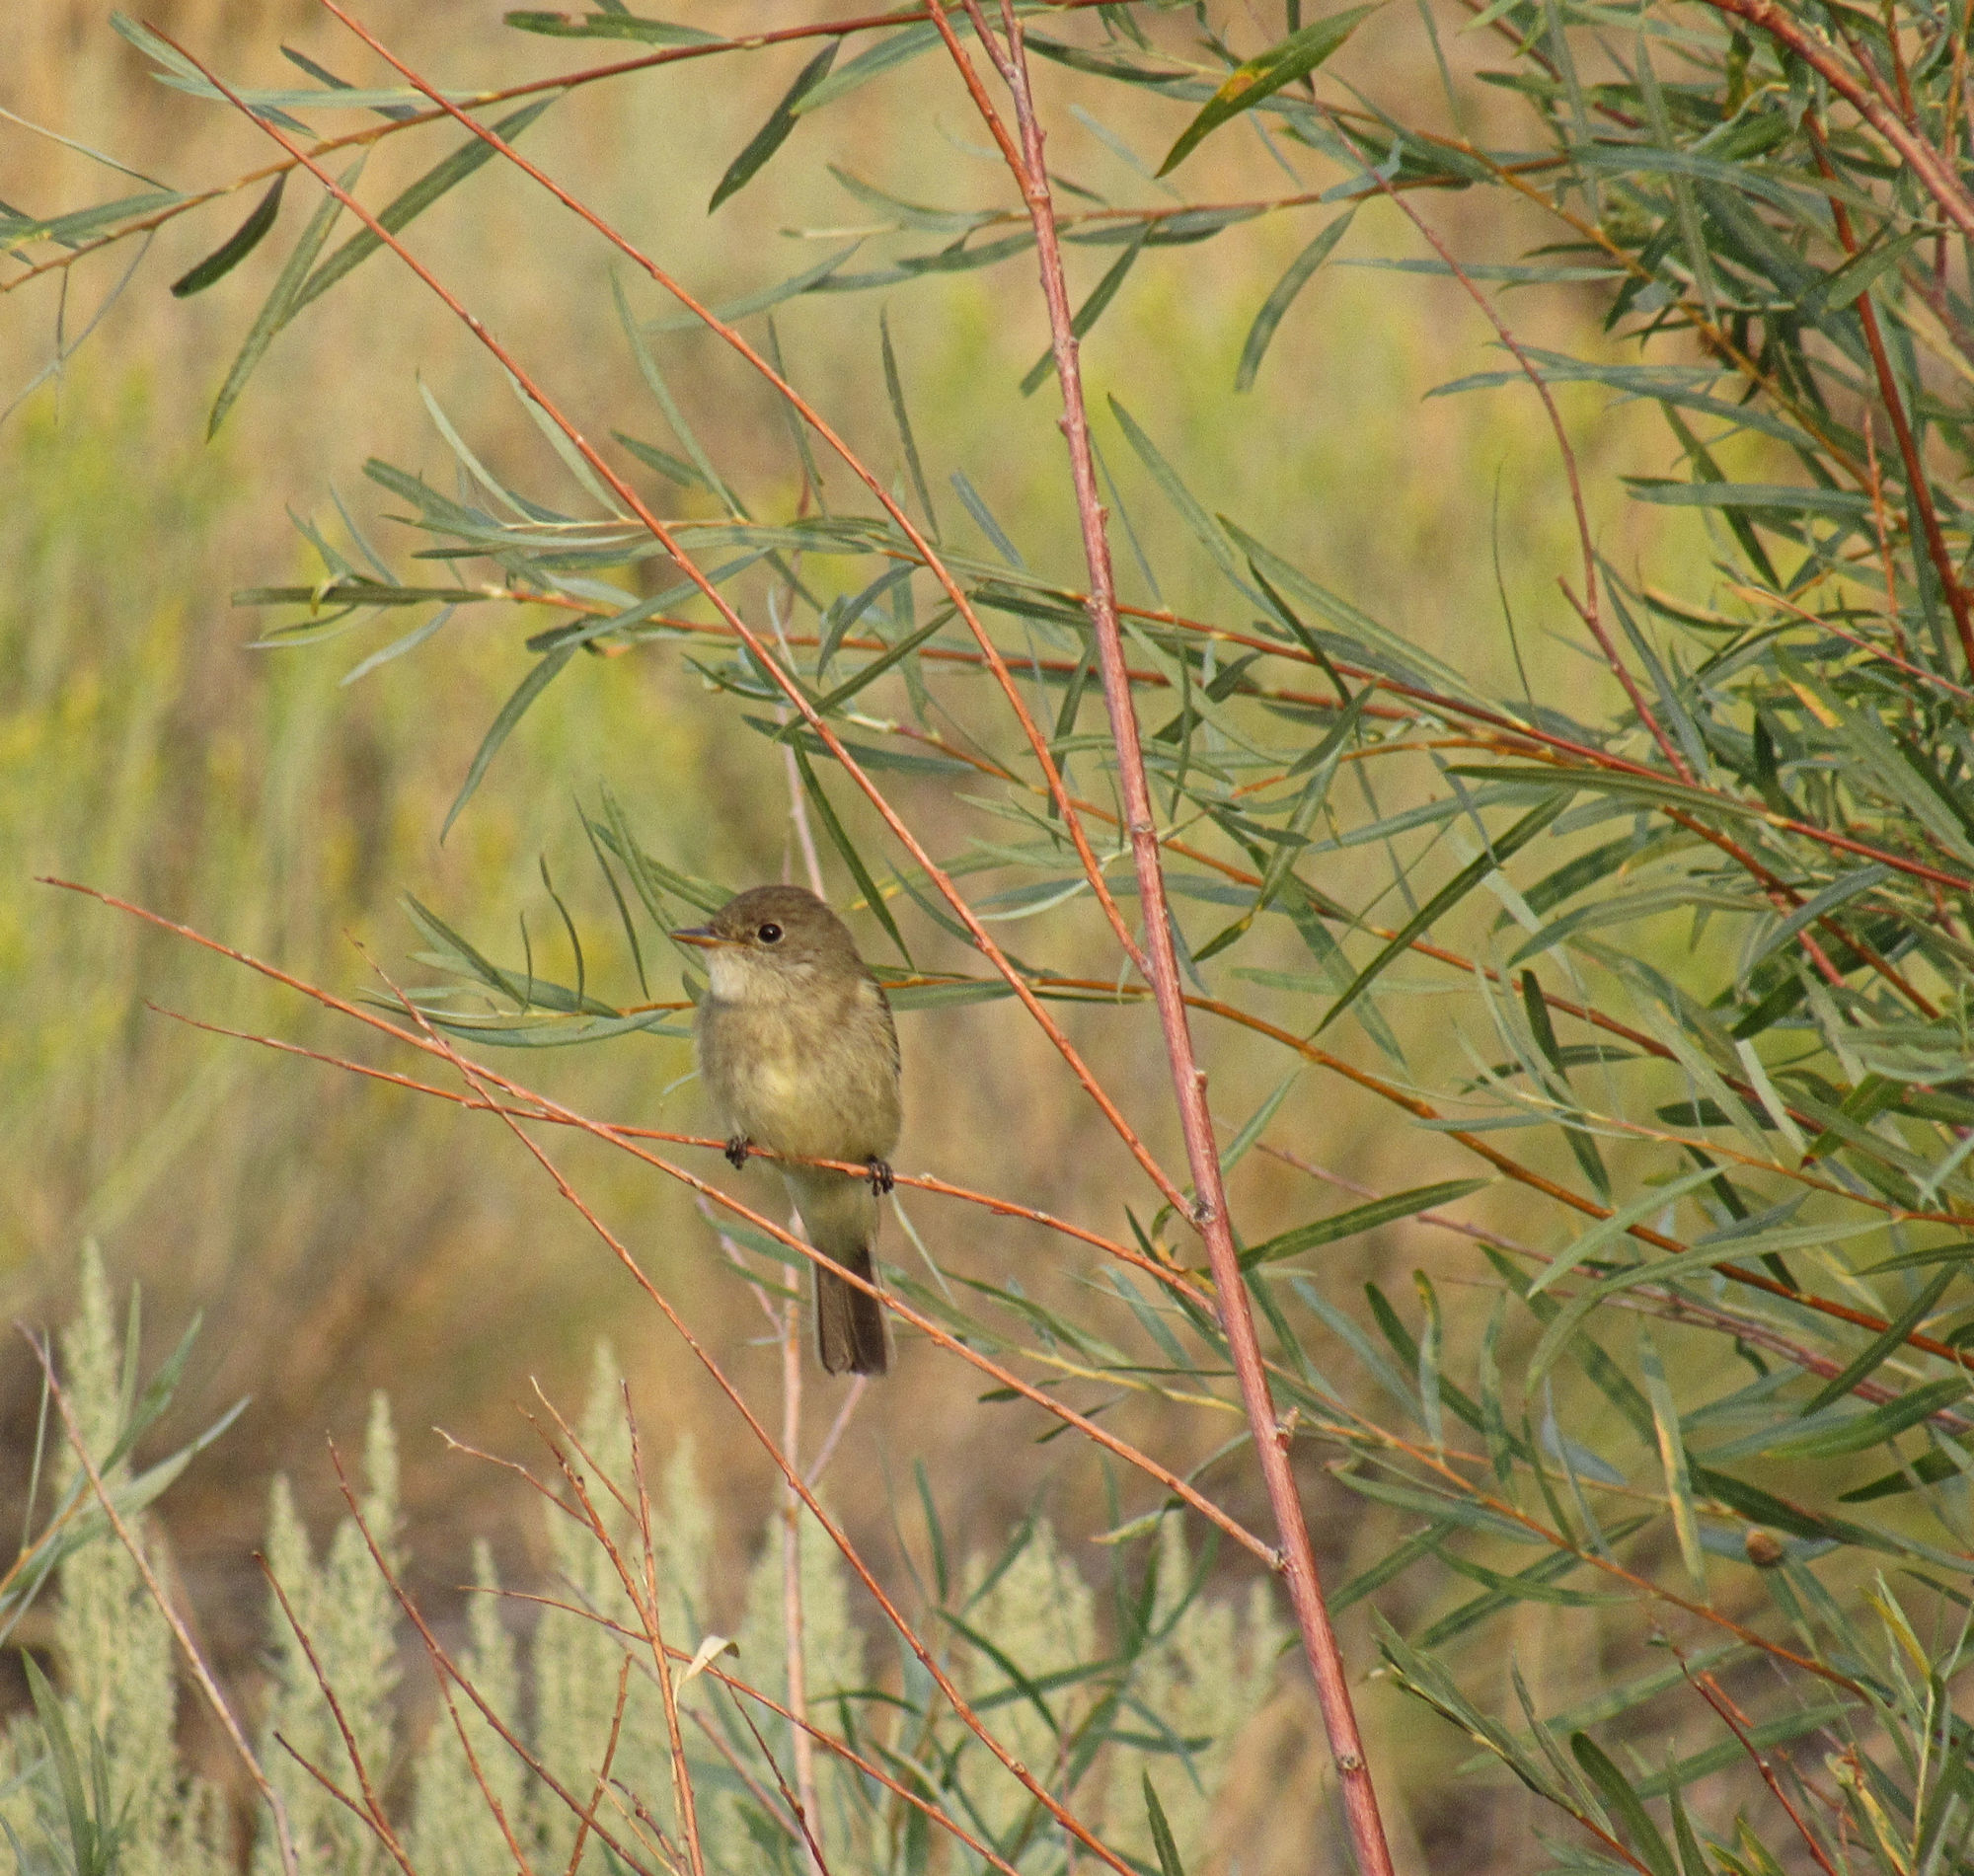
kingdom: Animalia
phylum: Chordata
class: Aves
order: Passeriformes
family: Tyrannidae
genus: Empidonax
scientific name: Empidonax traillii
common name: Willow flycatcher
